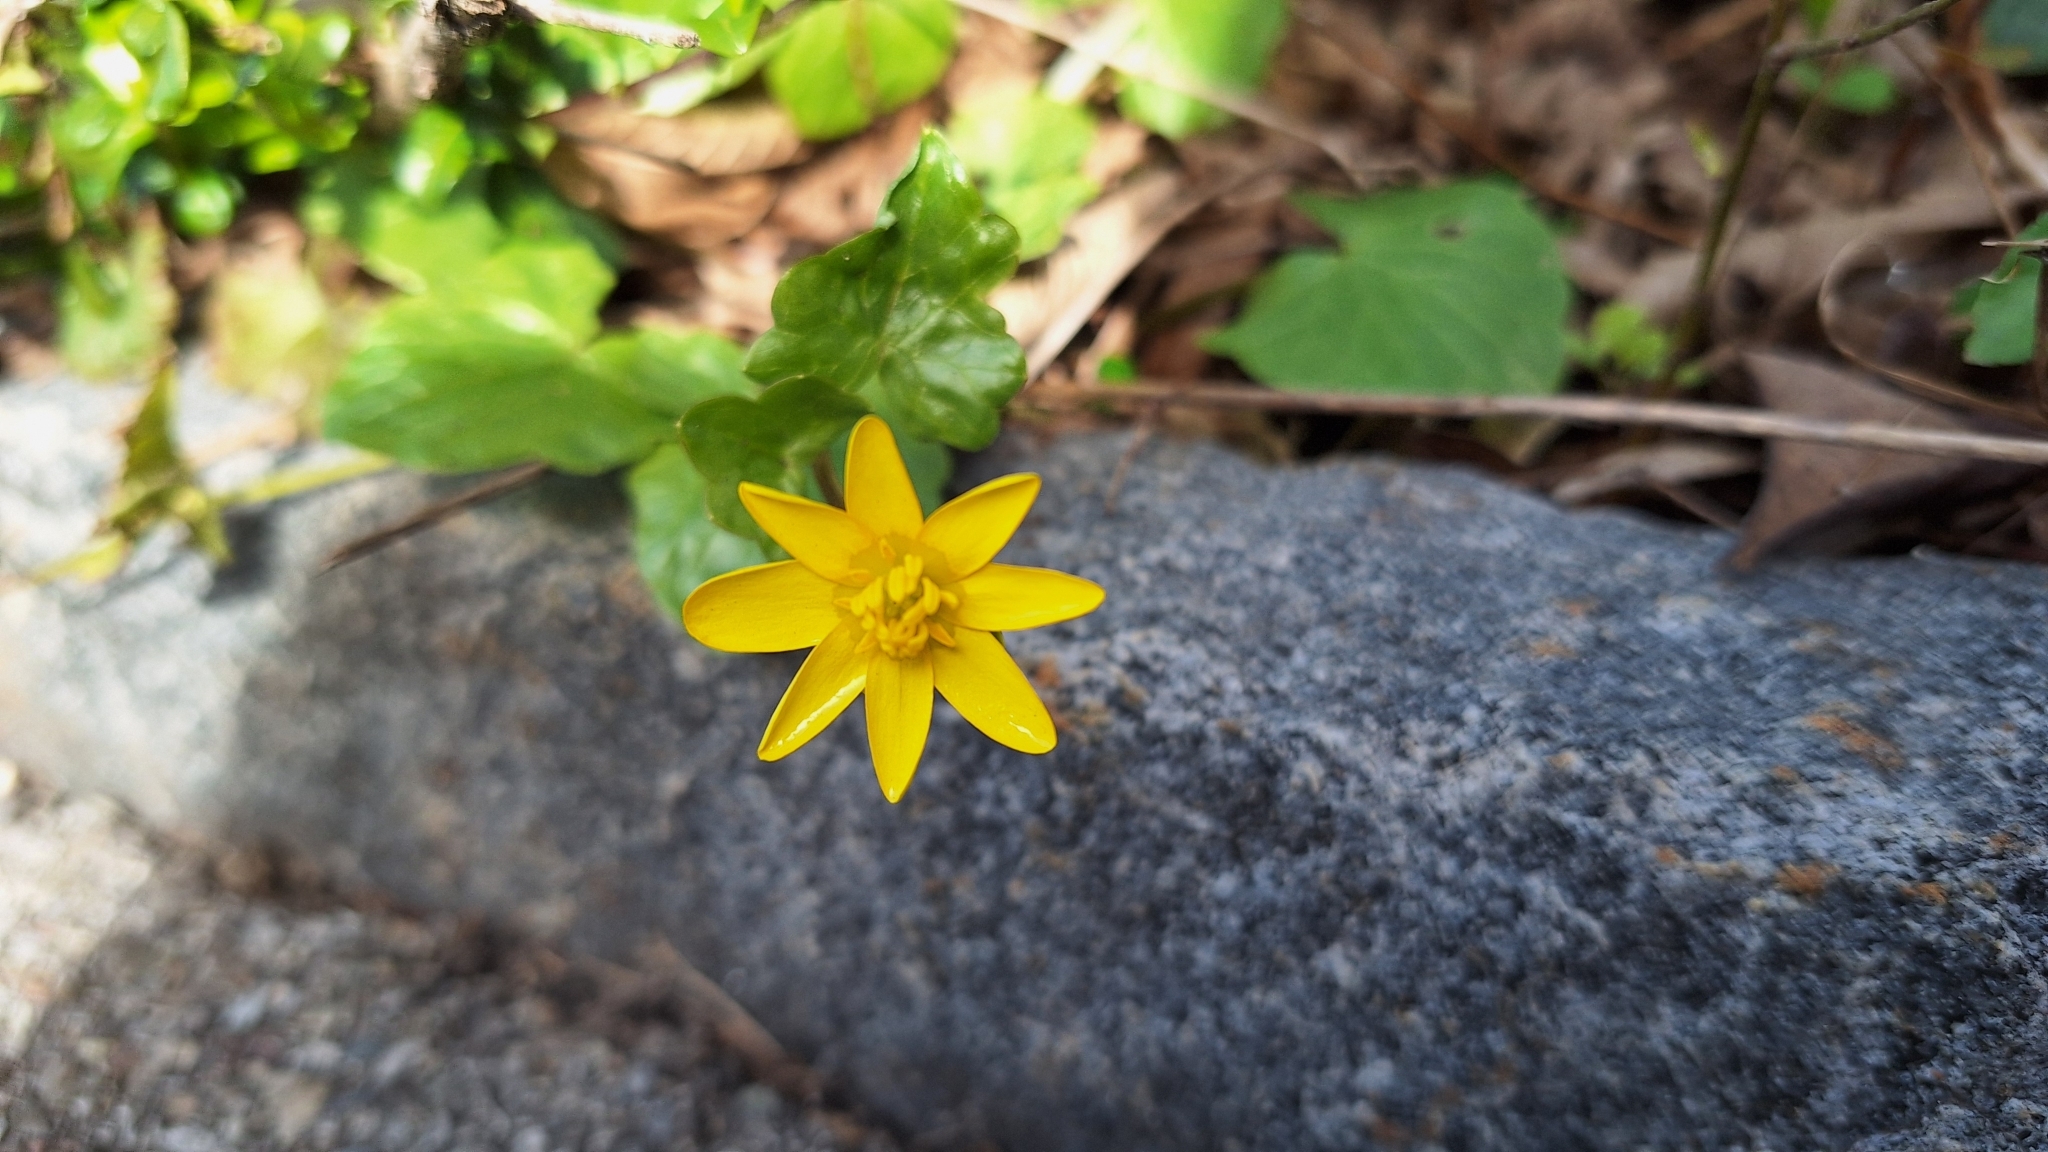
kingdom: Plantae
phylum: Tracheophyta
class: Magnoliopsida
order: Ranunculales
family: Ranunculaceae
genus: Ficaria
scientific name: Ficaria verna
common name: Lesser celandine
